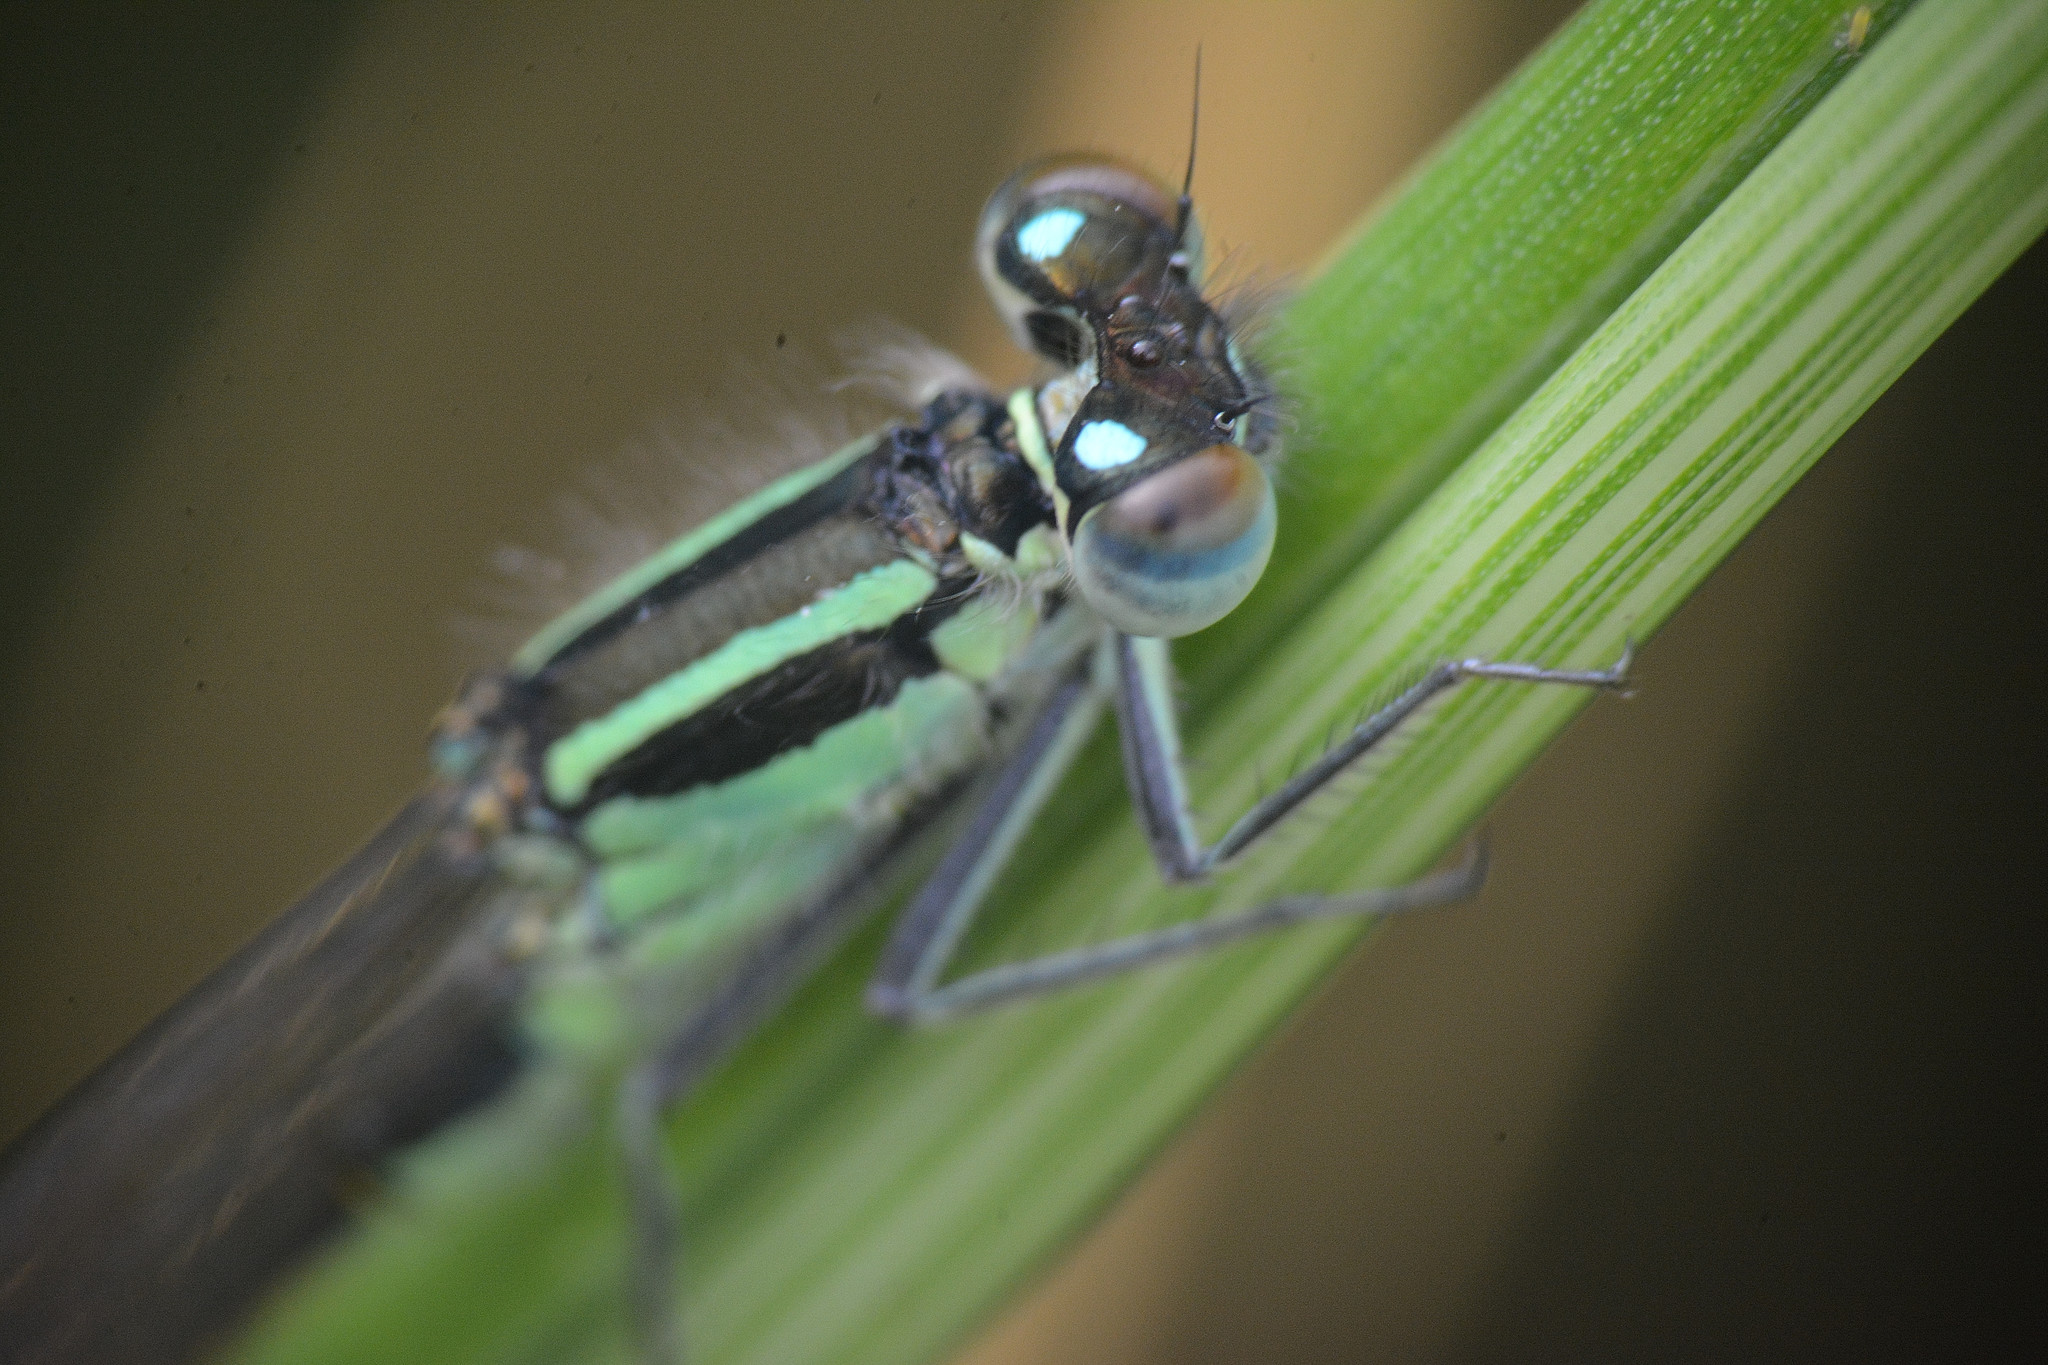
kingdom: Animalia
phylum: Arthropoda
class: Insecta
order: Odonata
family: Coenagrionidae
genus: Ischnura
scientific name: Ischnura elegans
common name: Blue-tailed damselfly
